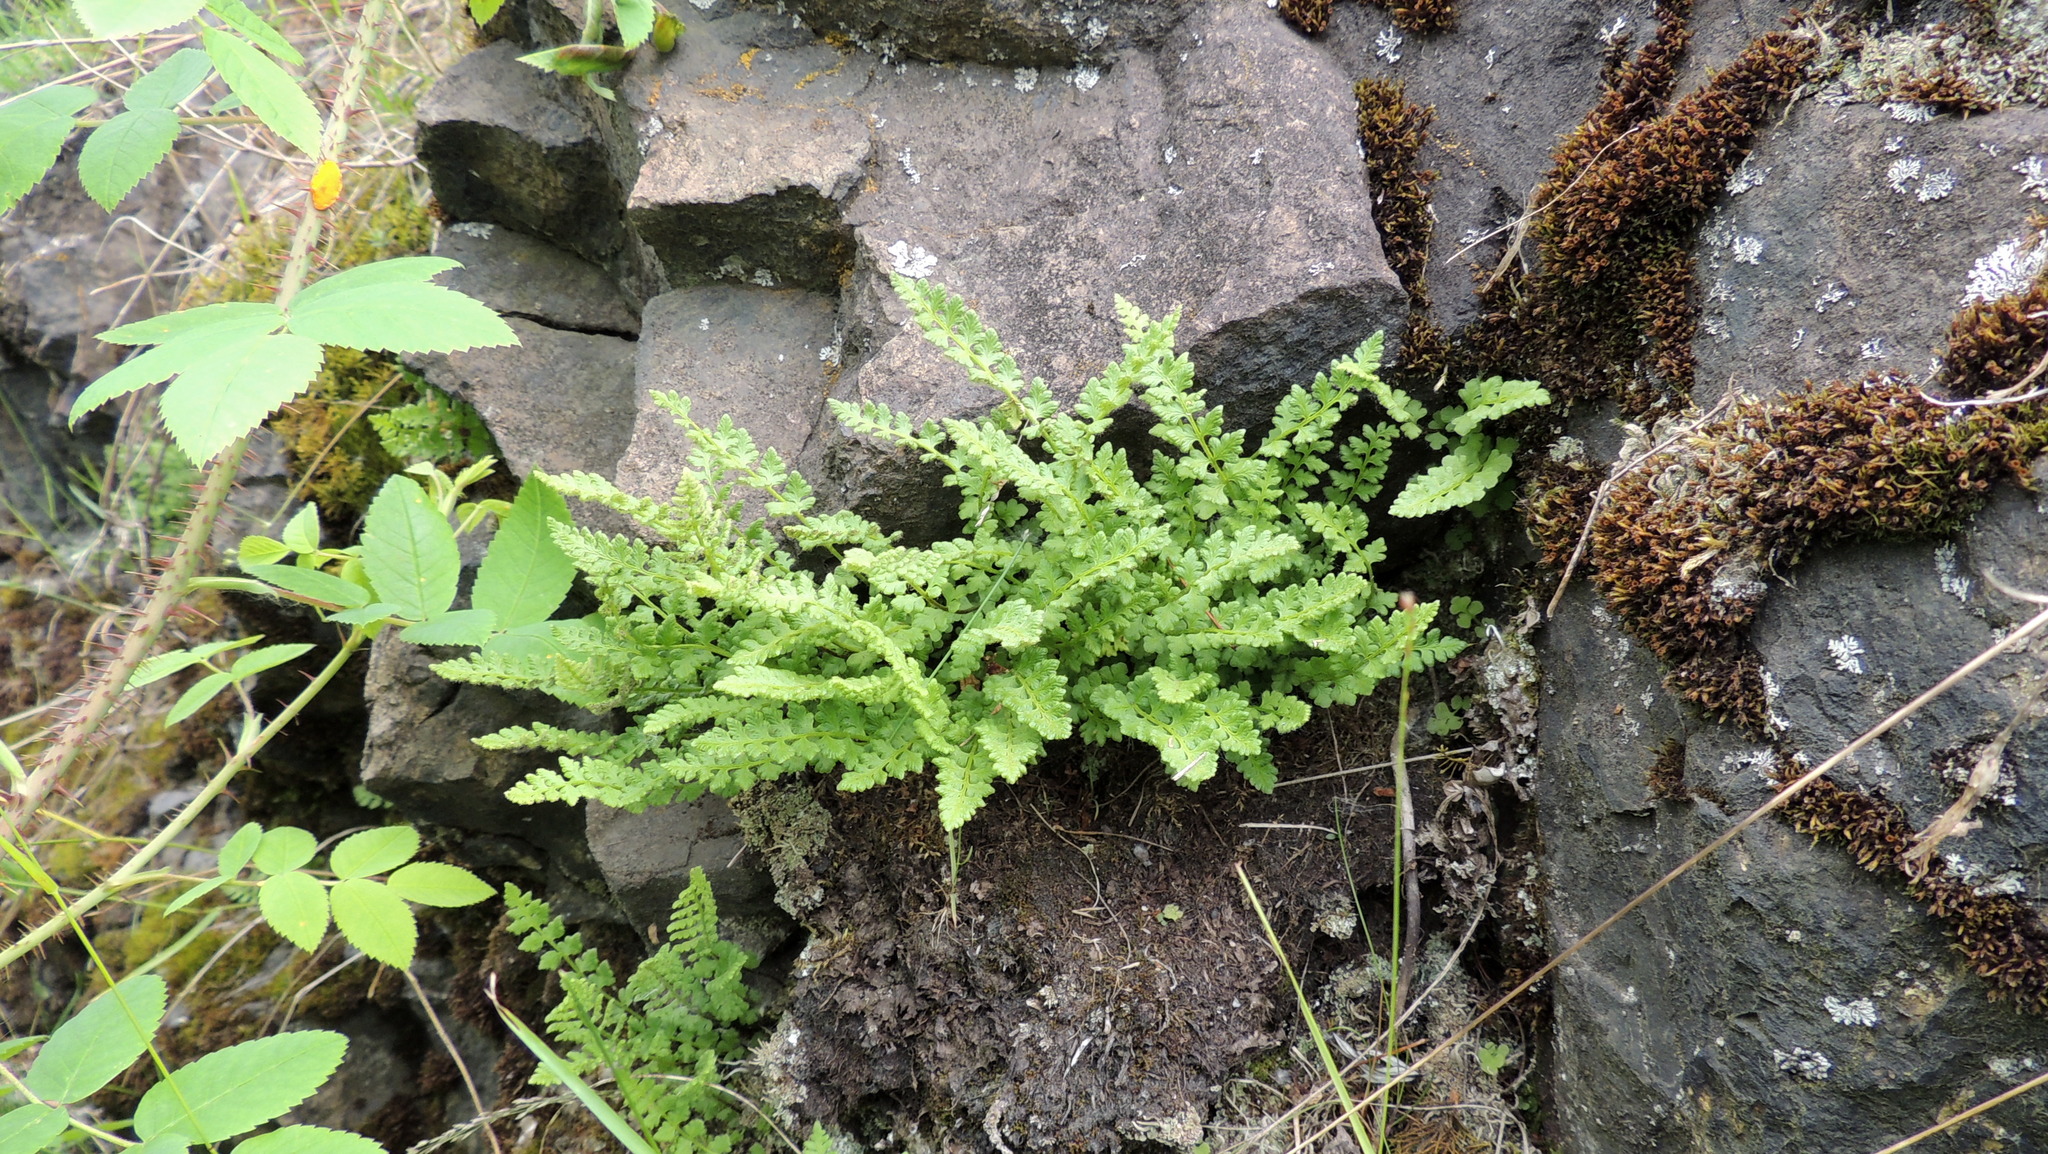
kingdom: Plantae
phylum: Tracheophyta
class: Polypodiopsida
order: Polypodiales
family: Woodsiaceae
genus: Woodsia
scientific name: Woodsia alpina
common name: Alpine woodsia
